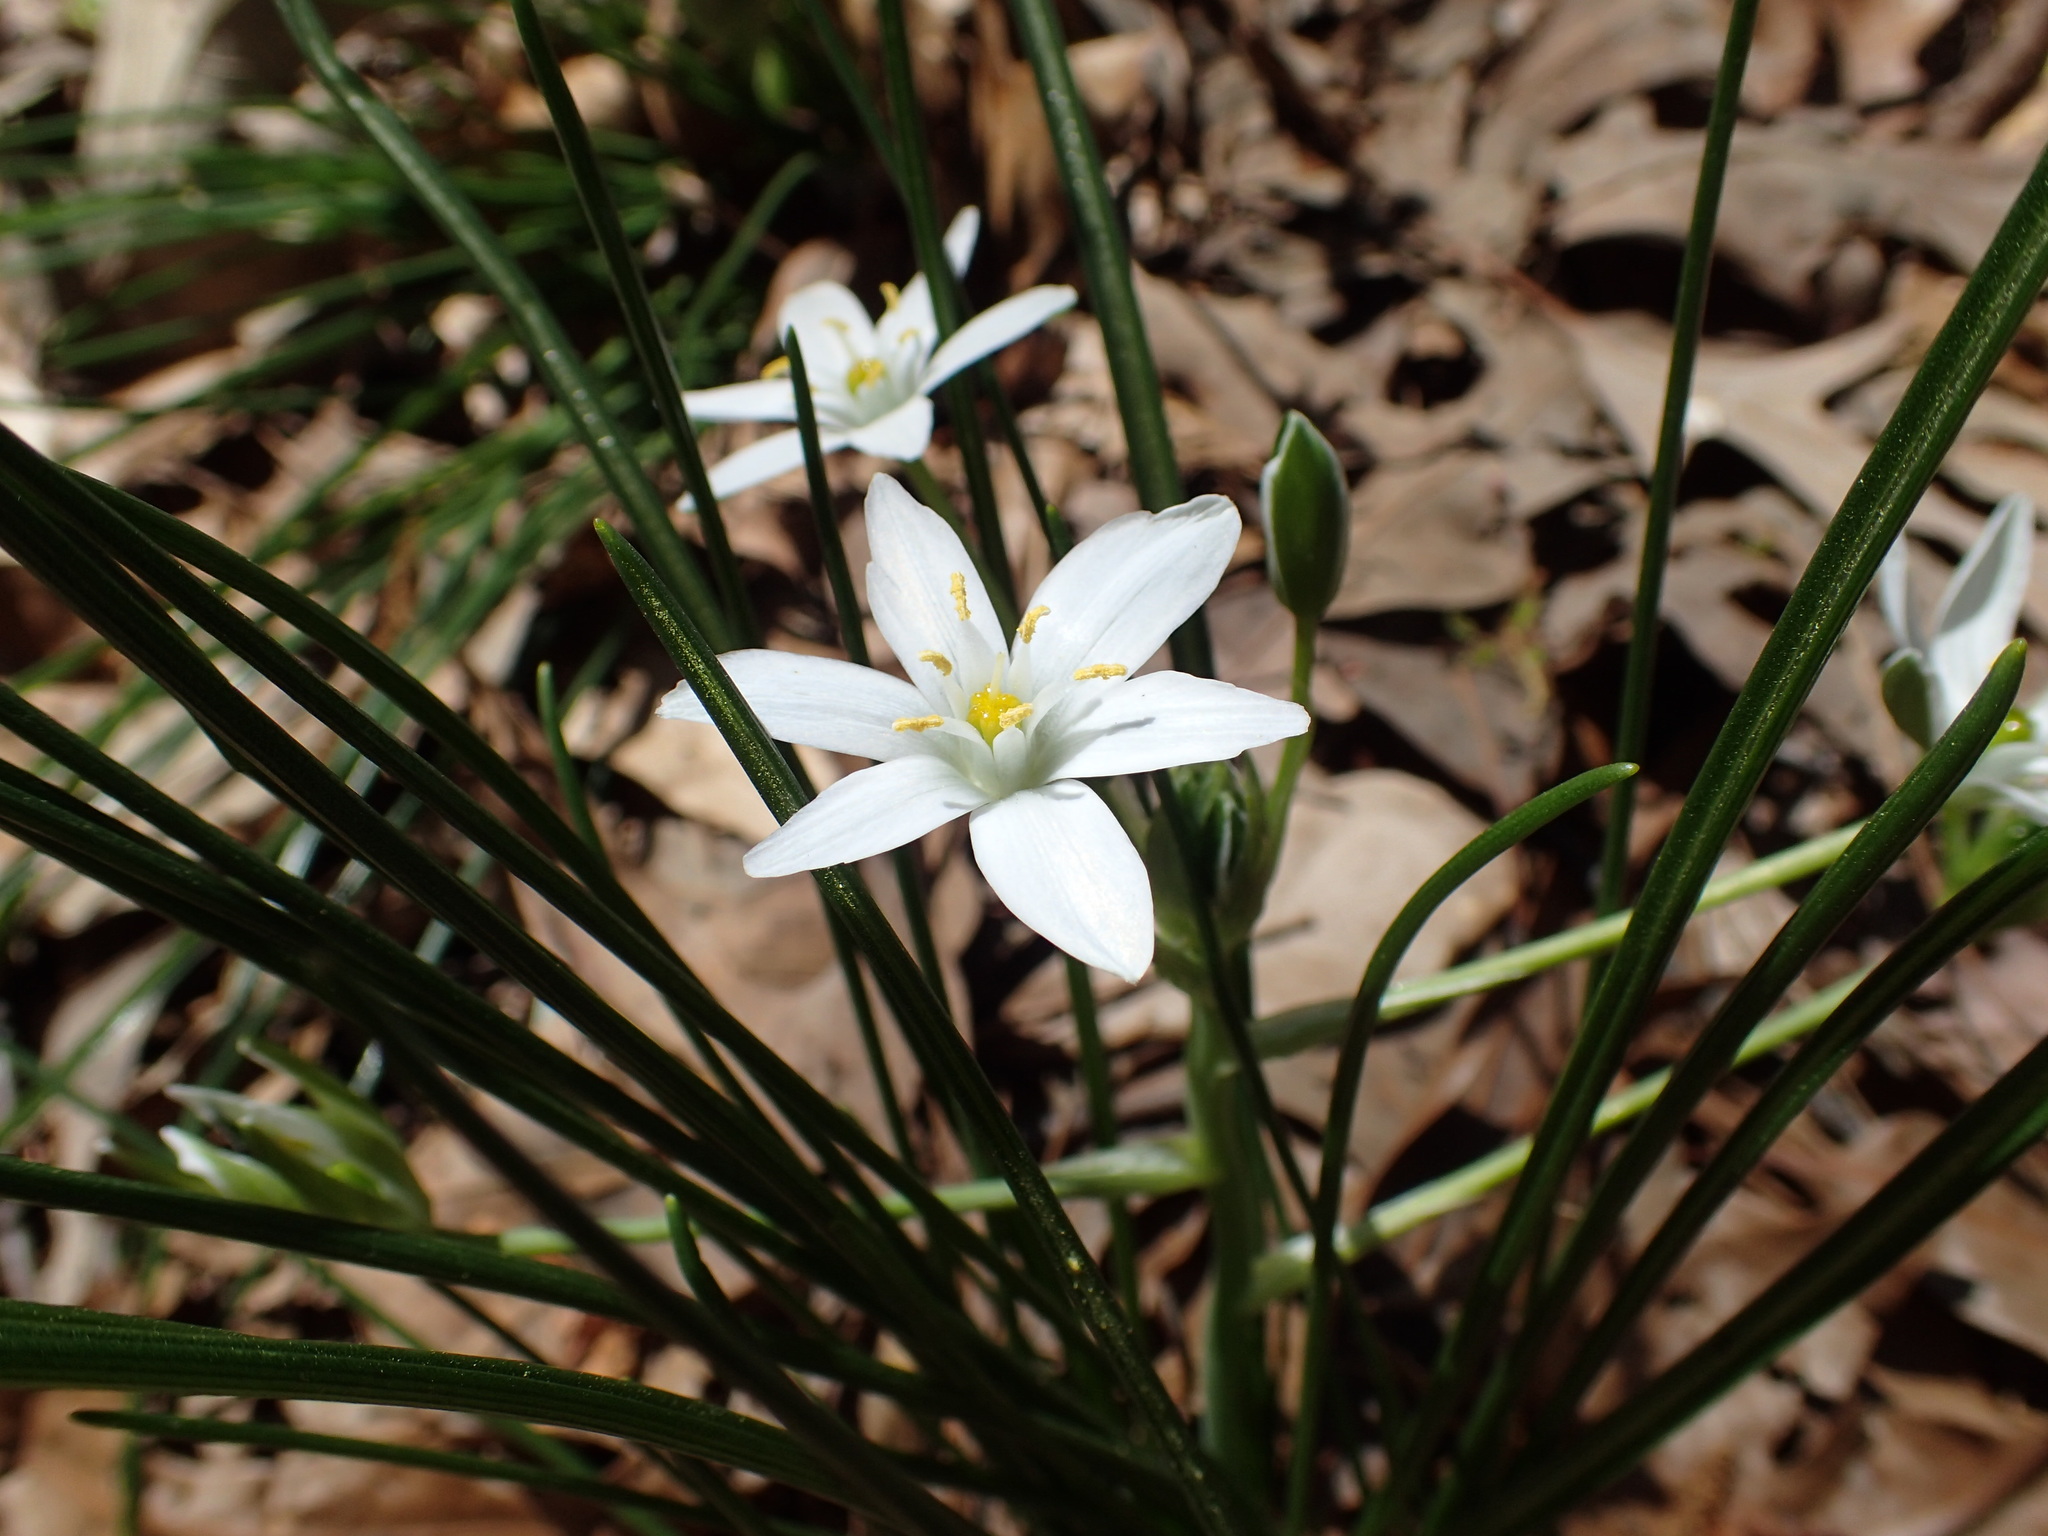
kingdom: Plantae
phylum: Tracheophyta
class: Liliopsida
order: Asparagales
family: Asparagaceae
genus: Ornithogalum
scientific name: Ornithogalum umbellatum
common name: Garden star-of-bethlehem
